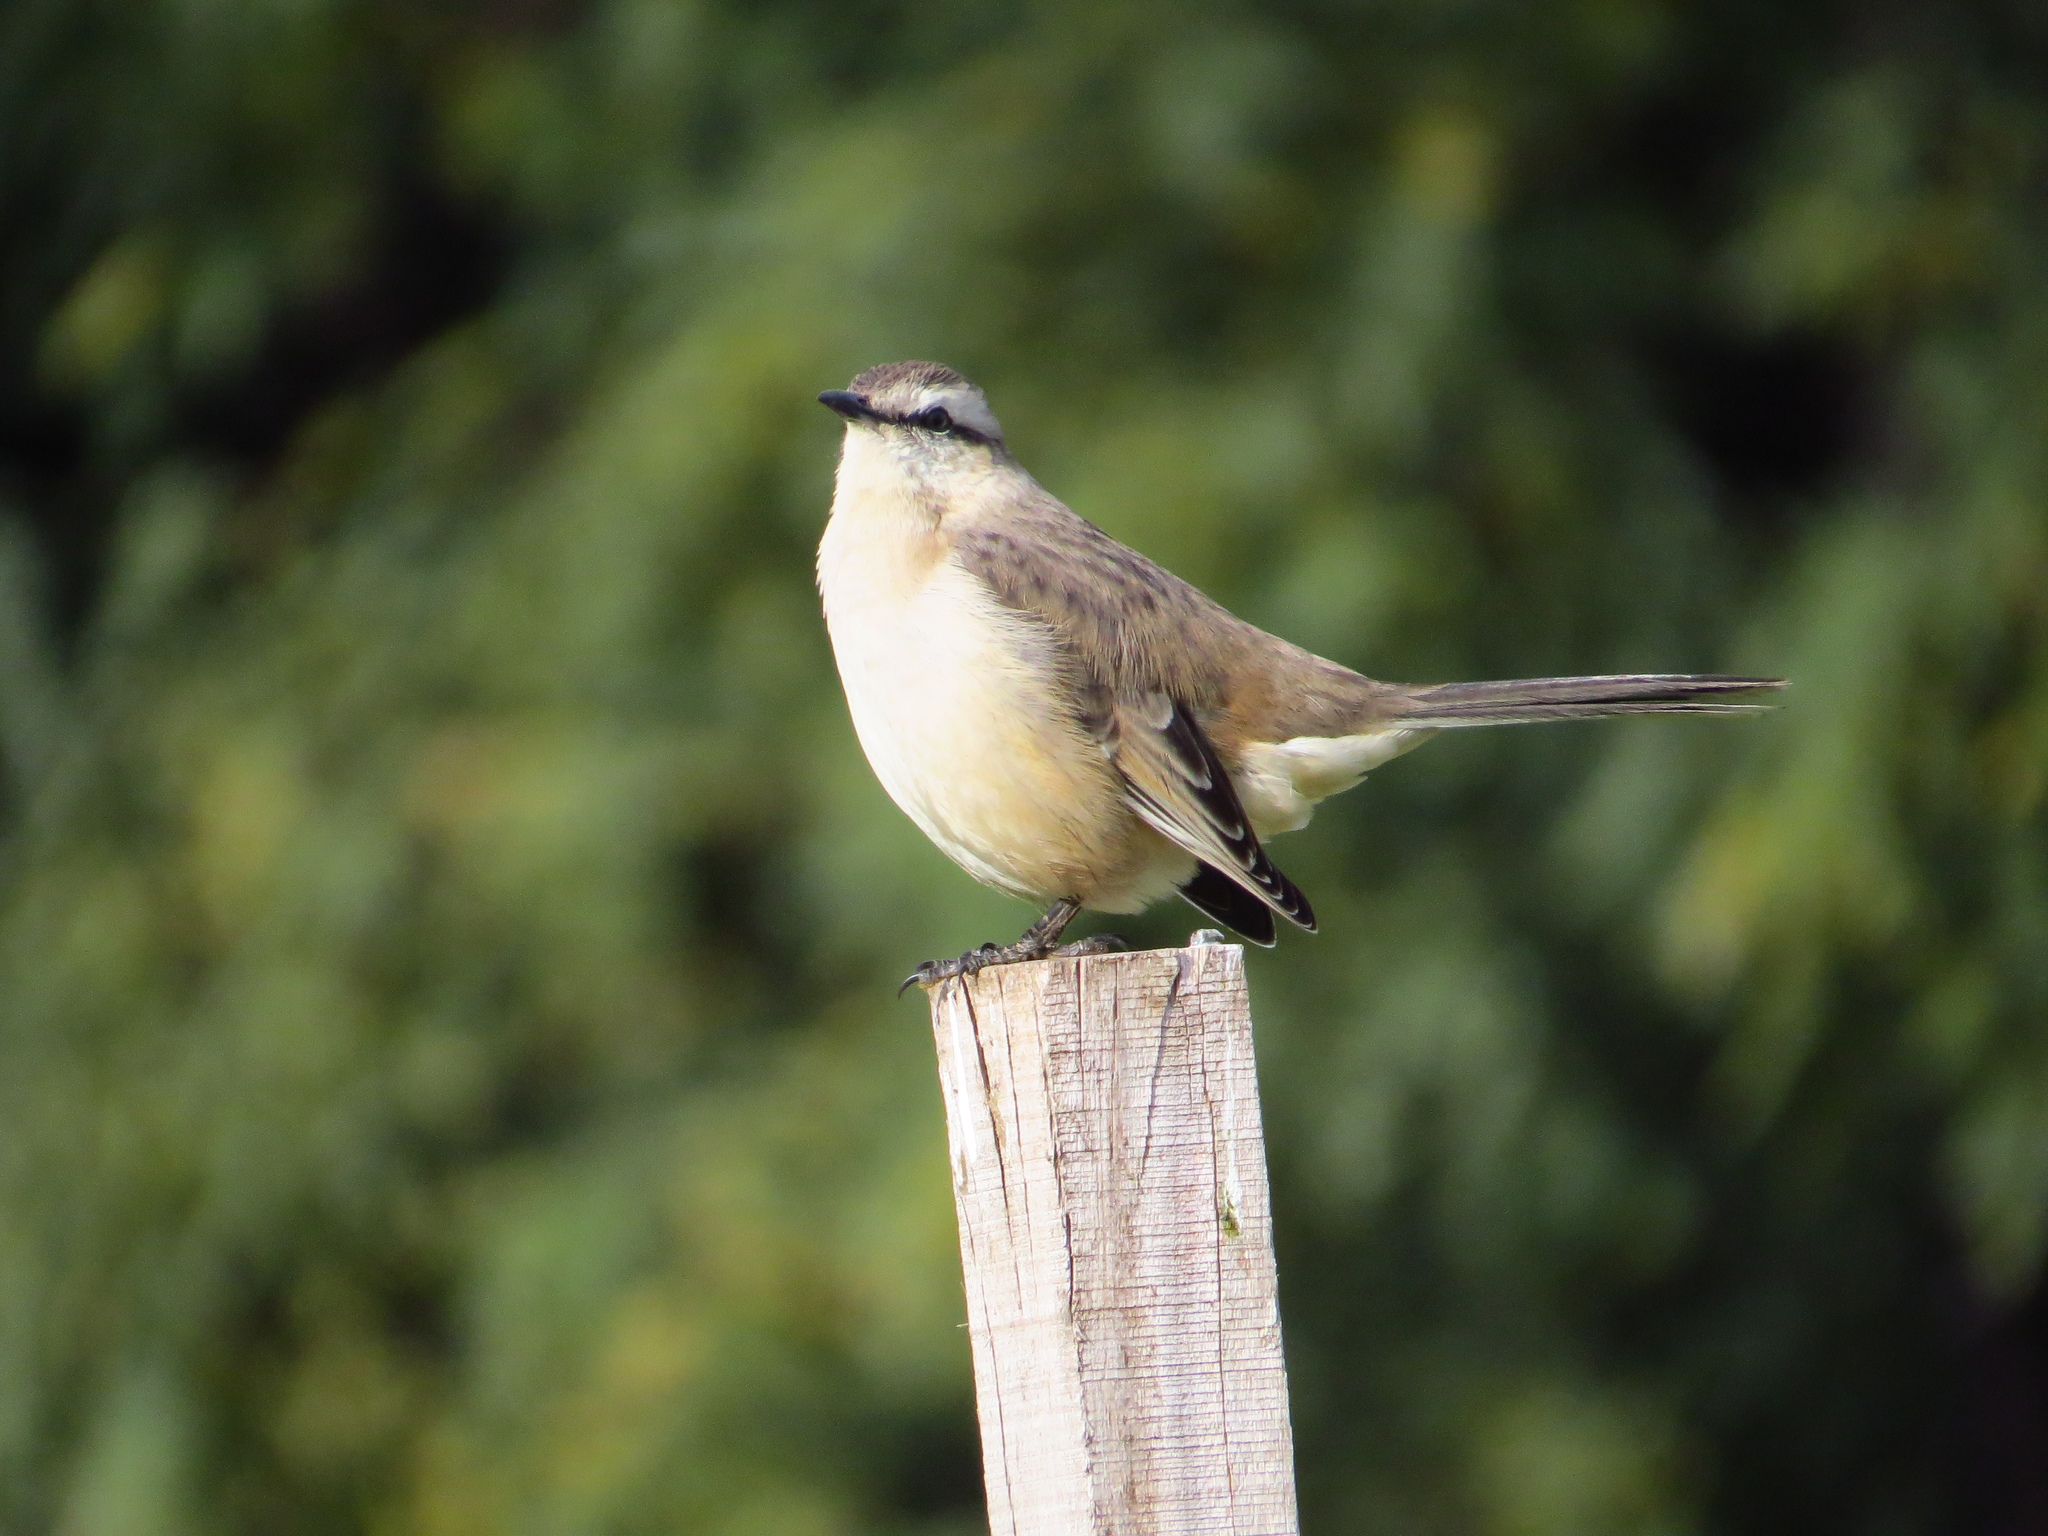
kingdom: Animalia
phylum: Chordata
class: Aves
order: Passeriformes
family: Mimidae
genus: Mimus
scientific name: Mimus saturninus
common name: Chalk-browed mockingbird
